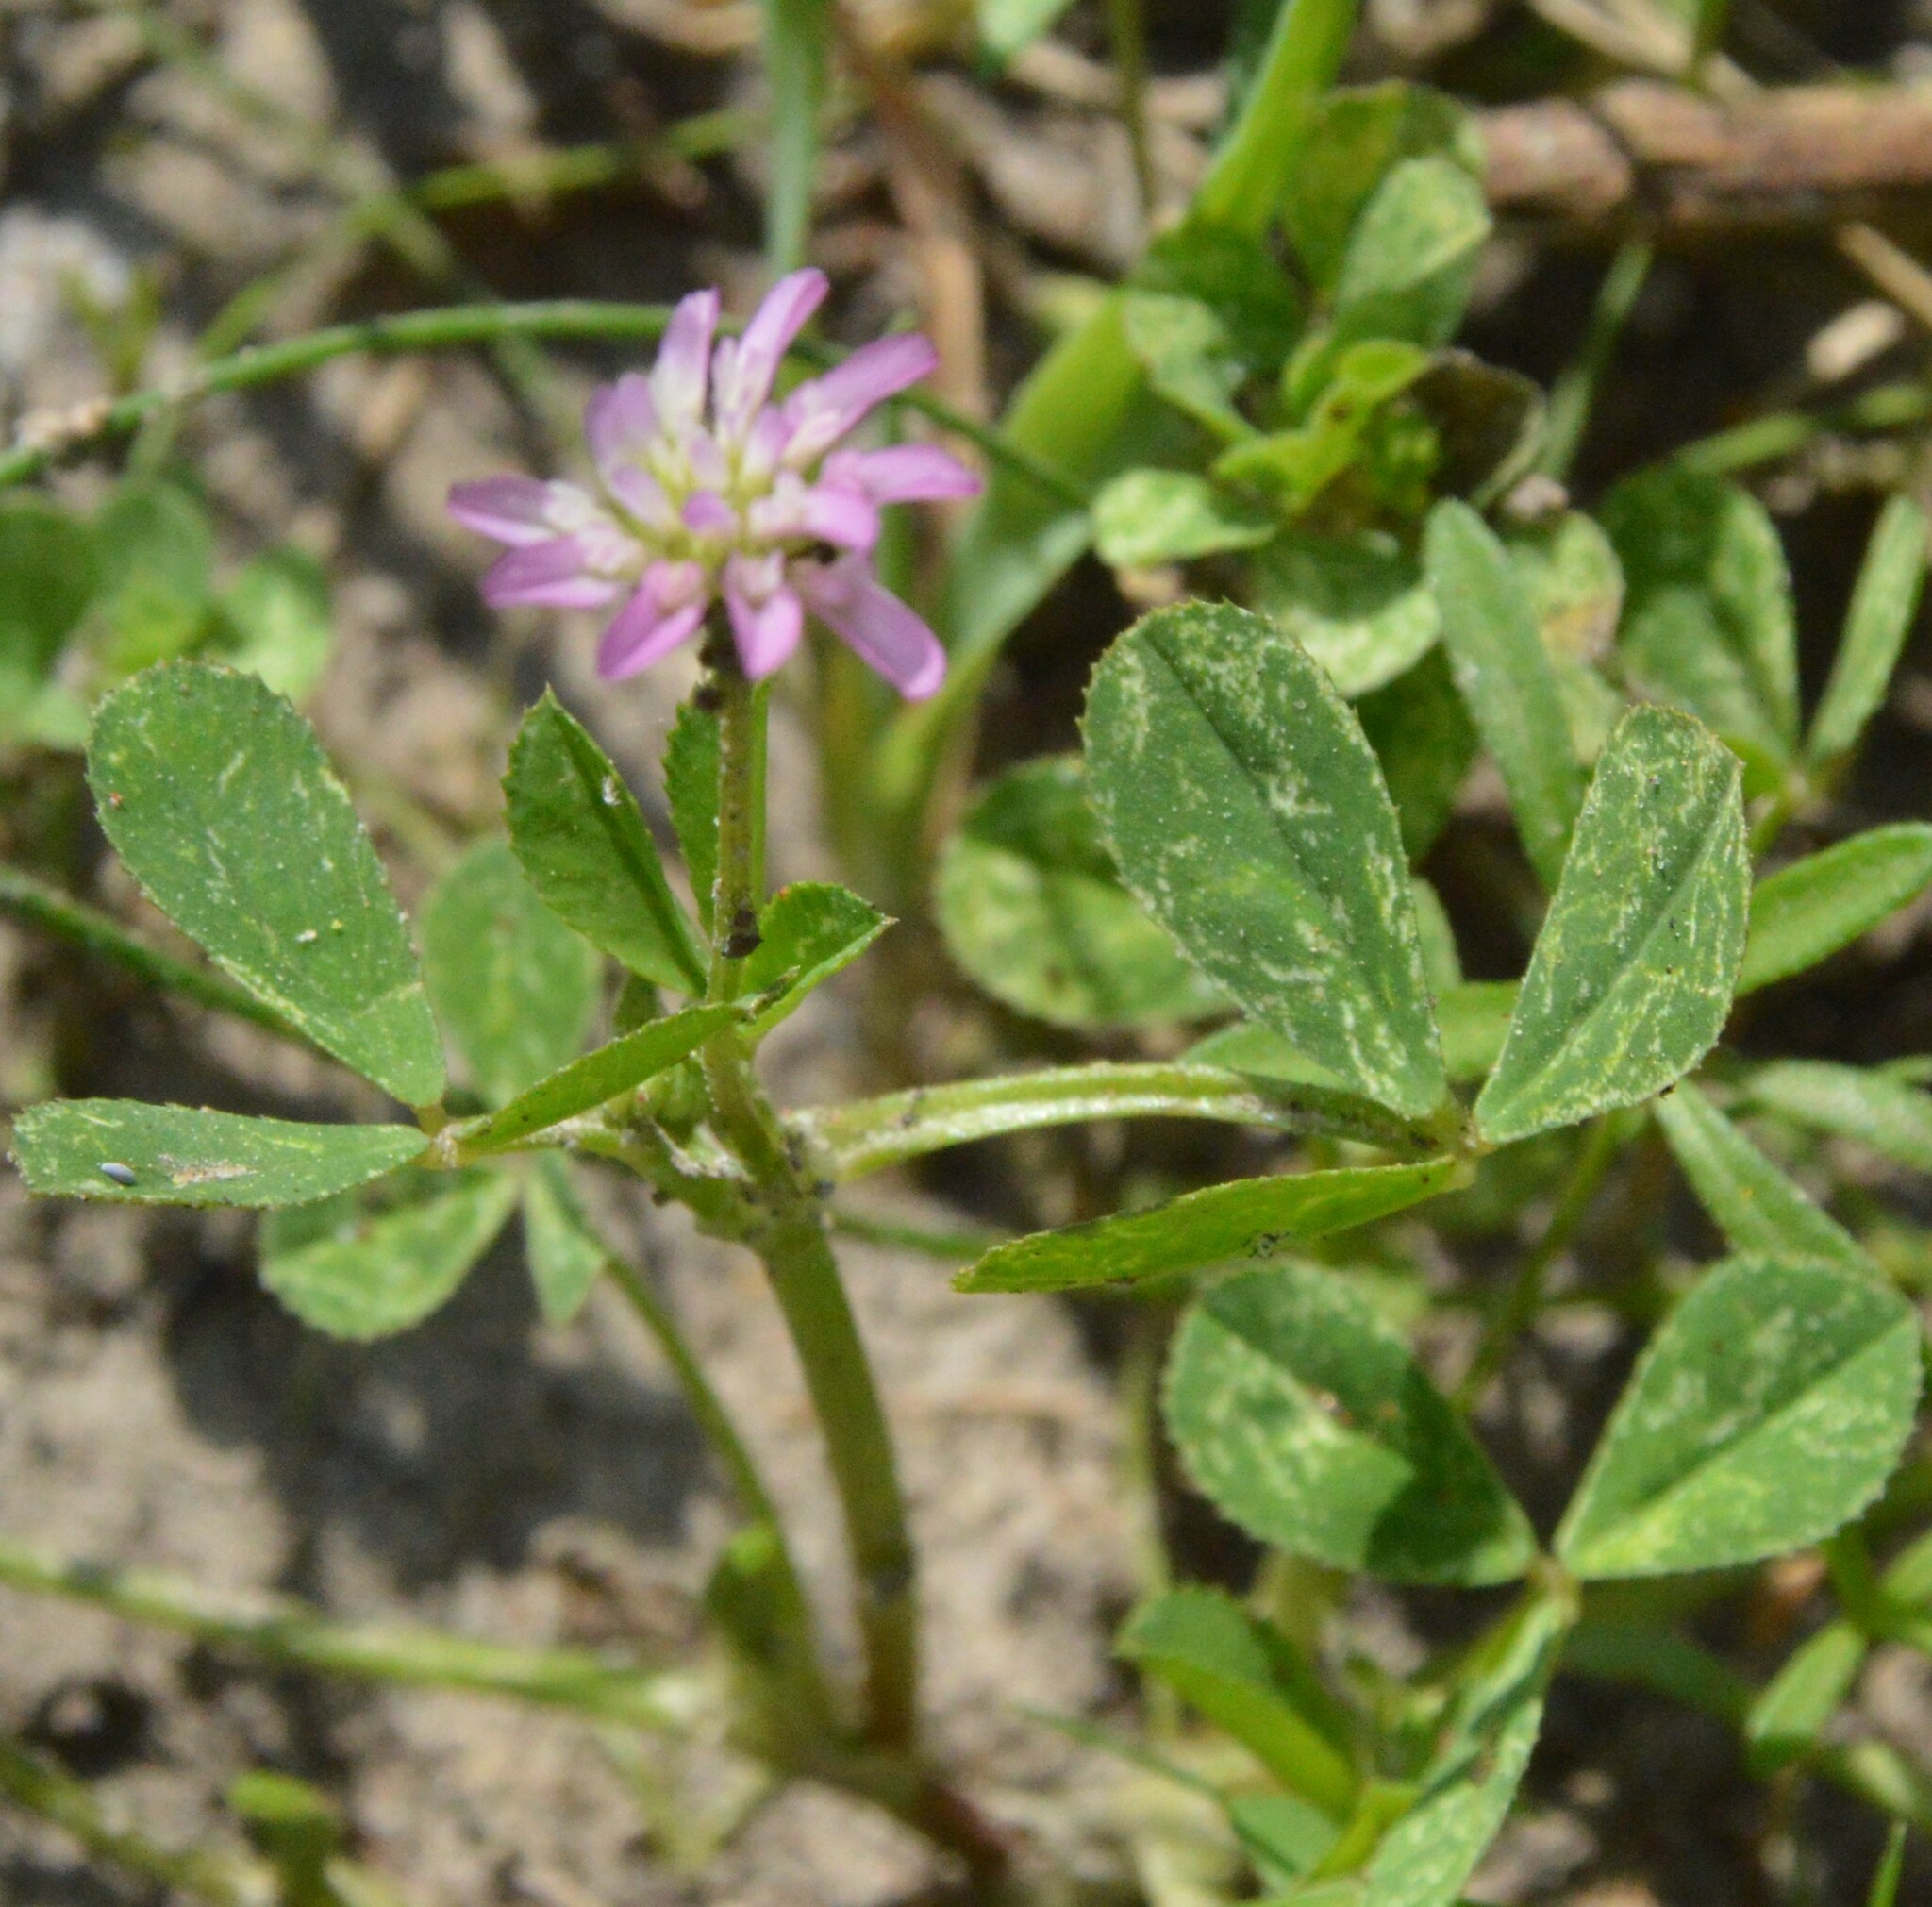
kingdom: Plantae
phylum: Tracheophyta
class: Magnoliopsida
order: Fabales
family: Fabaceae
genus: Trifolium
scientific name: Trifolium resupinatum
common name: Reversed clover
